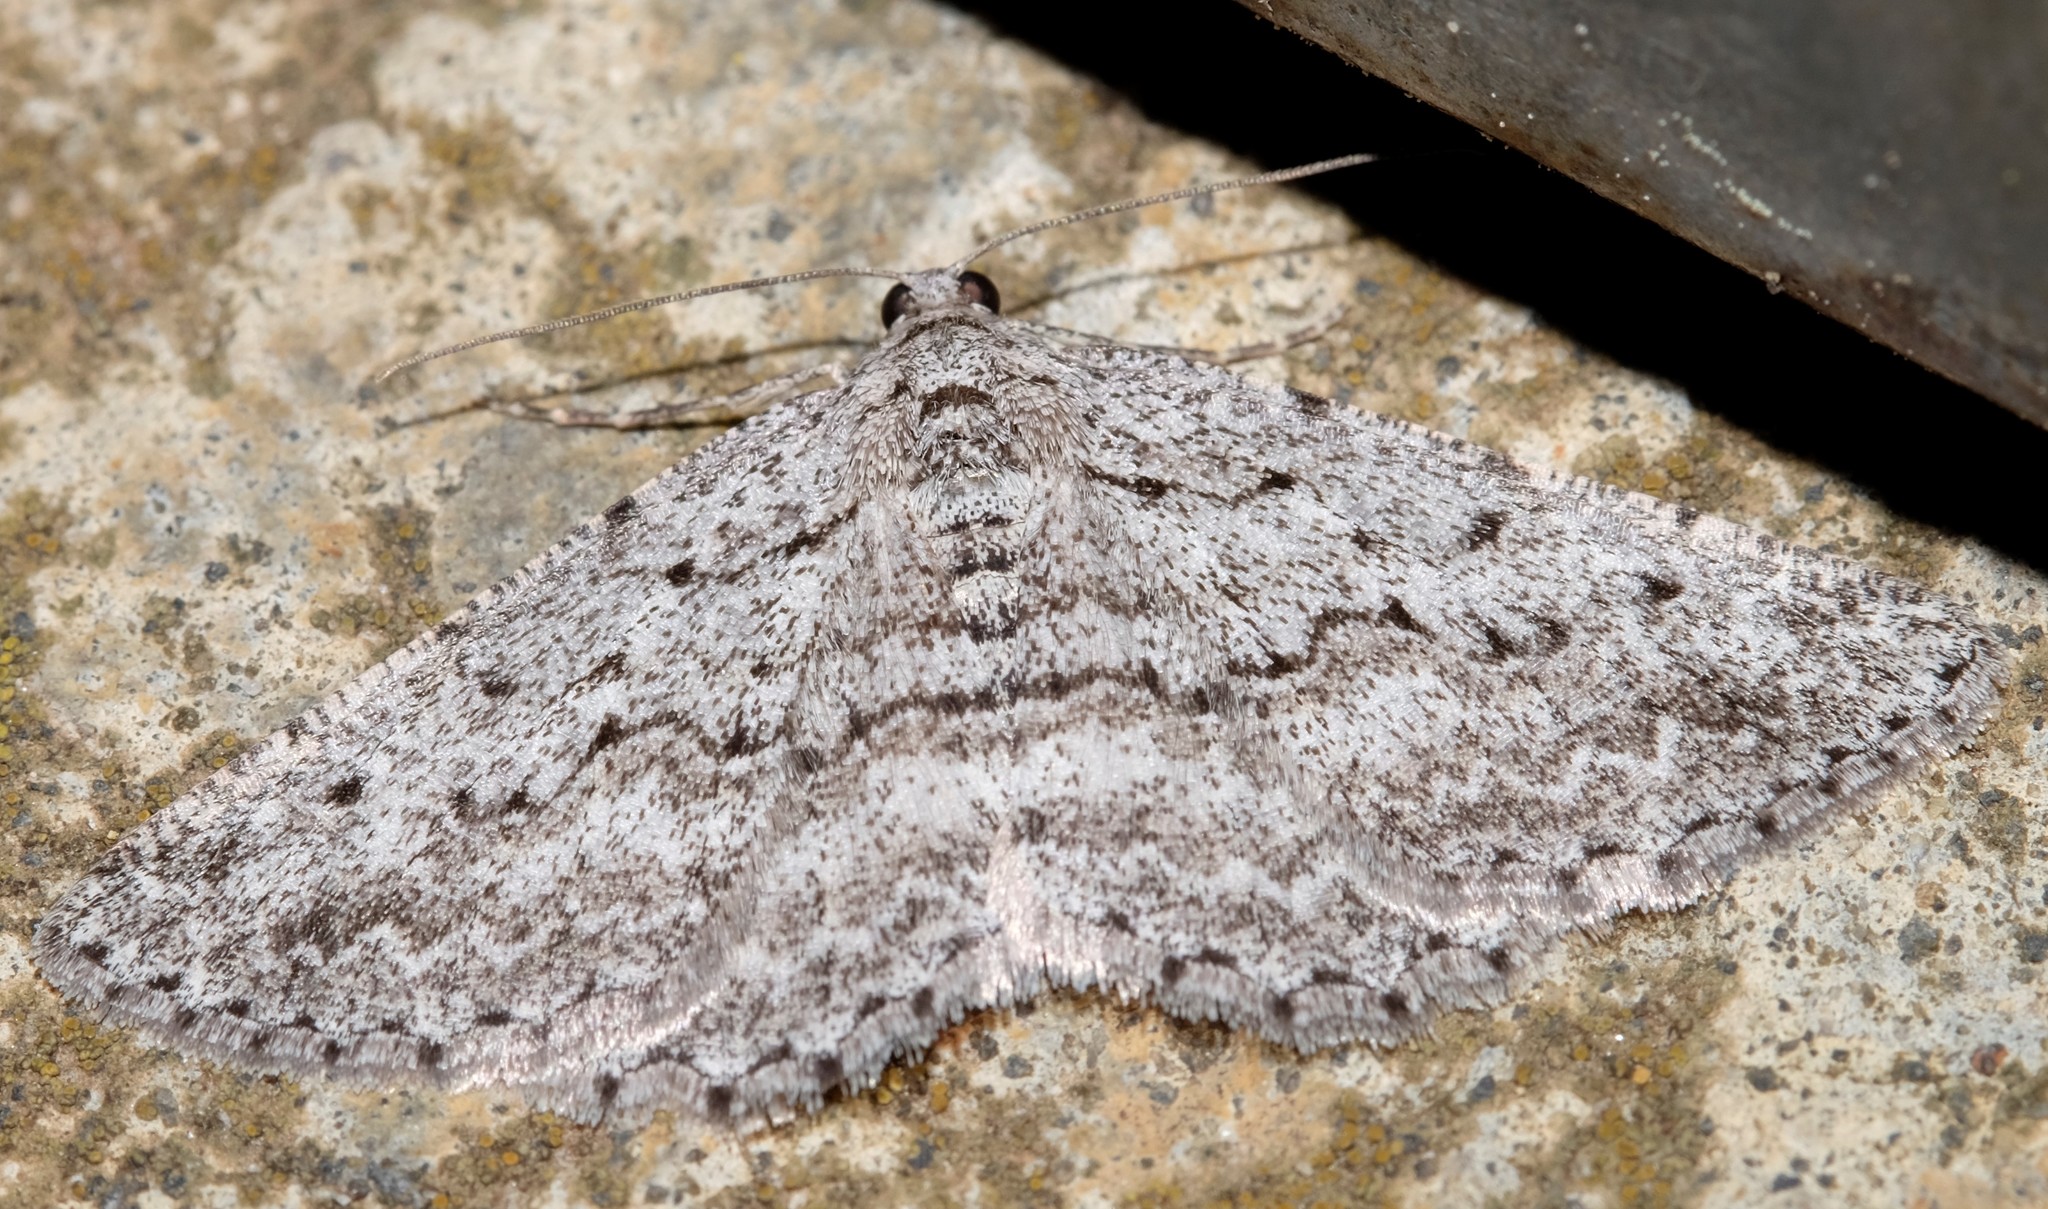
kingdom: Animalia
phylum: Arthropoda
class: Insecta
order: Lepidoptera
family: Geometridae
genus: Psilosticha
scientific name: Psilosticha absorpta
